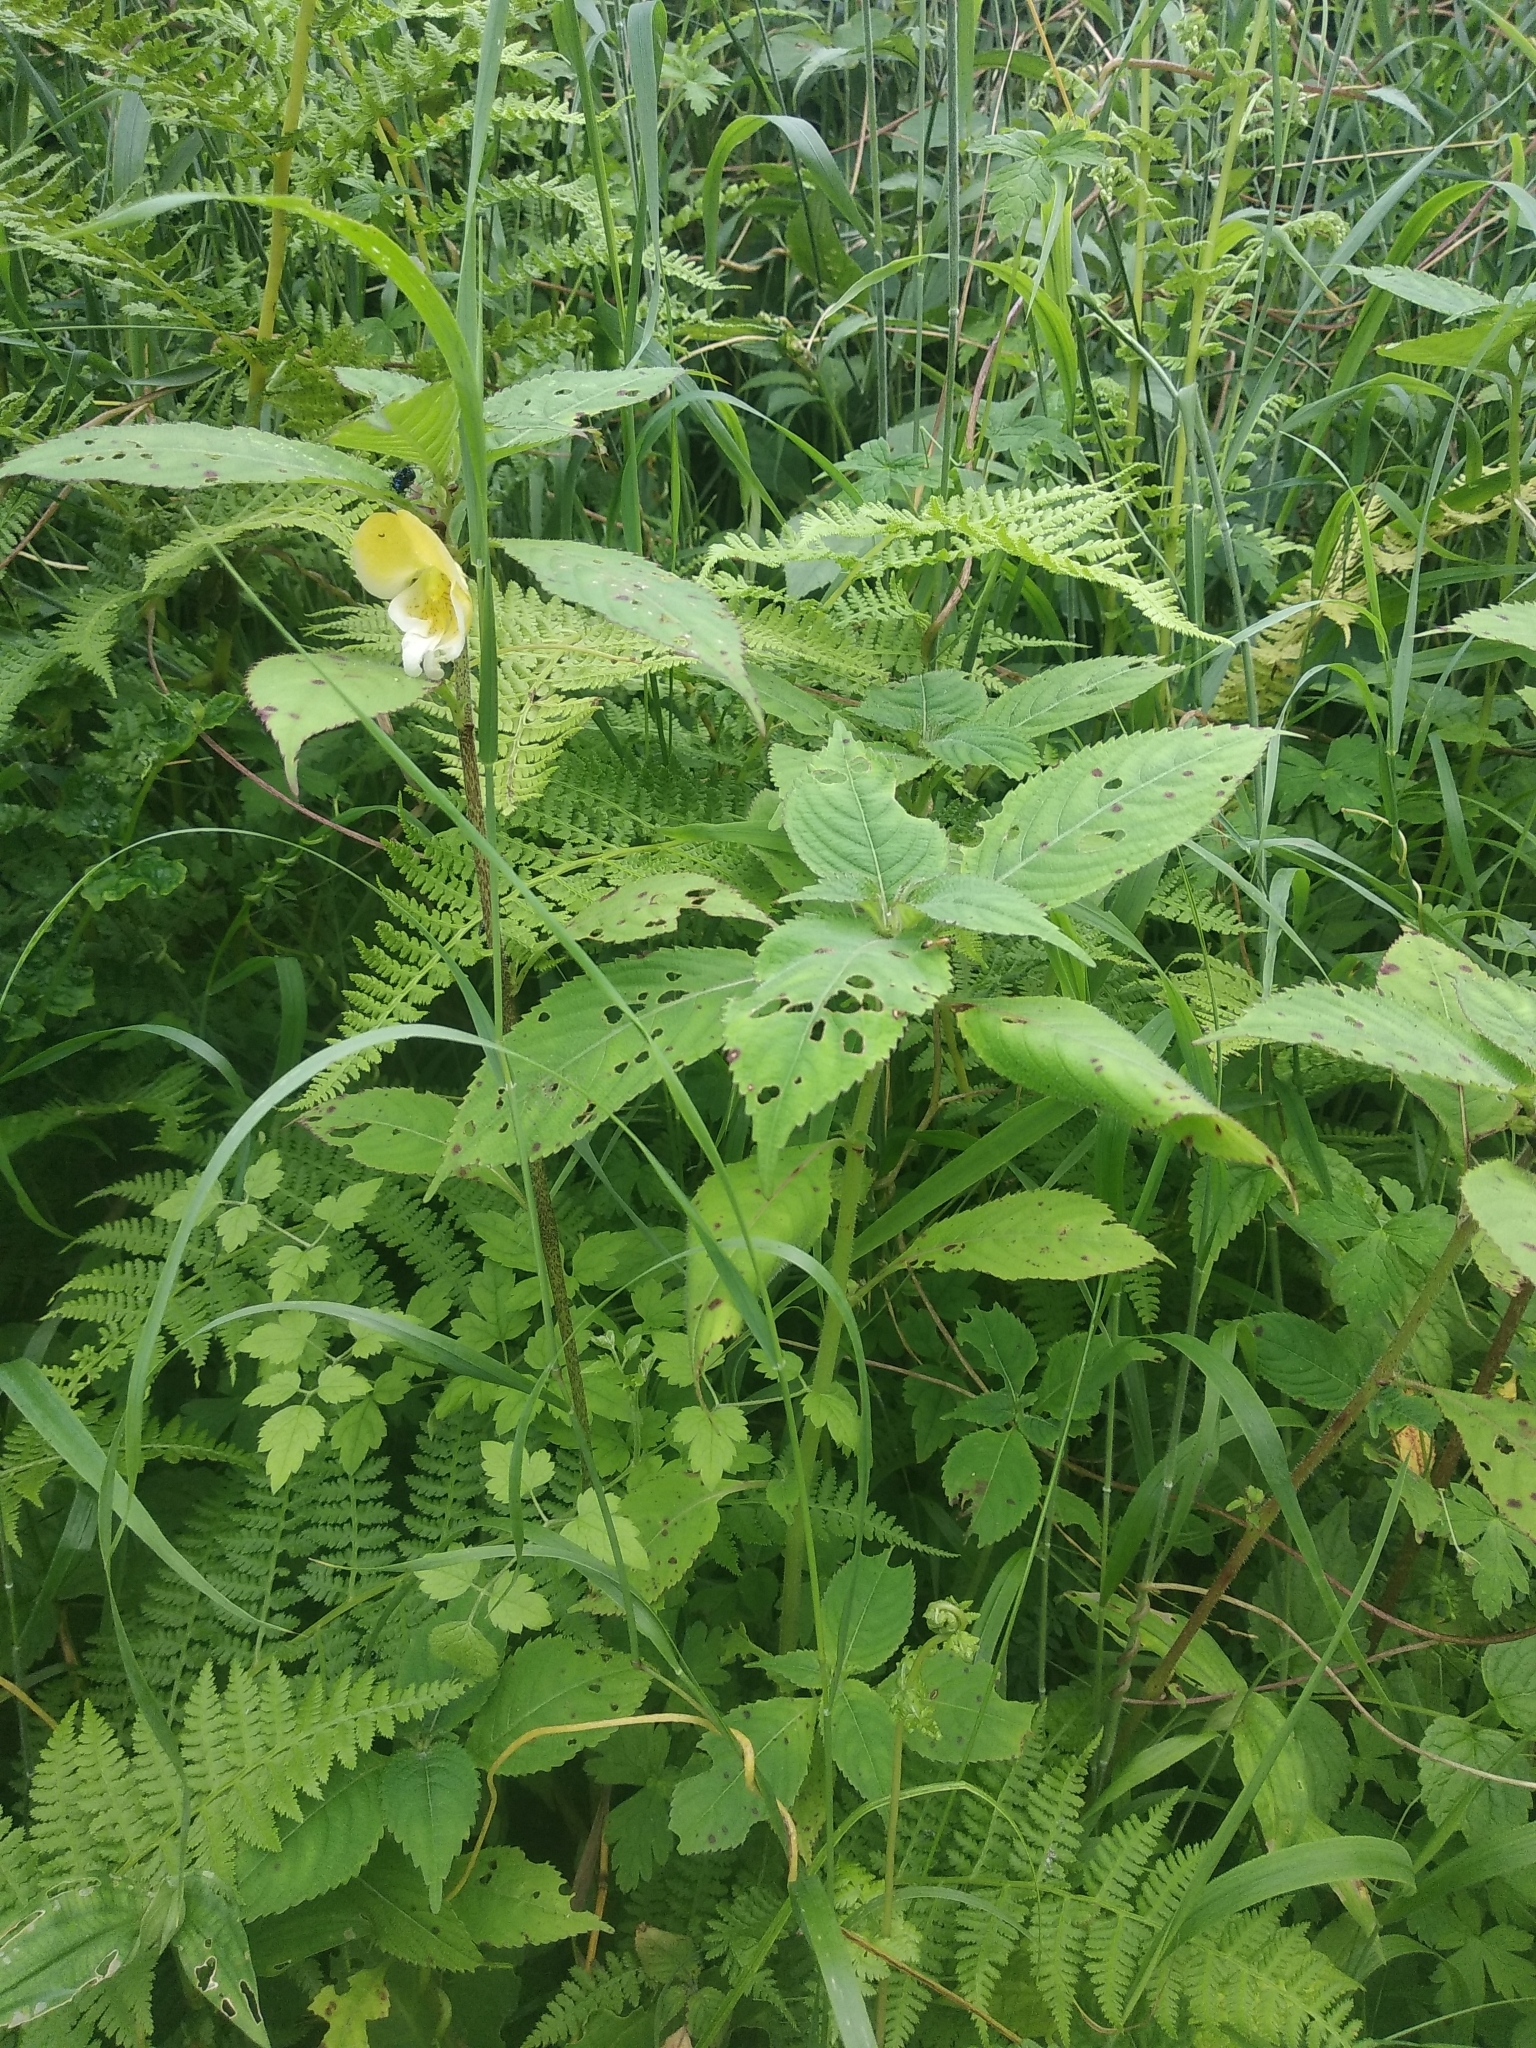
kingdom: Plantae
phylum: Tracheophyta
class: Magnoliopsida
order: Ericales
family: Balsaminaceae
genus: Impatiens
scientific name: Impatiens tricornis
